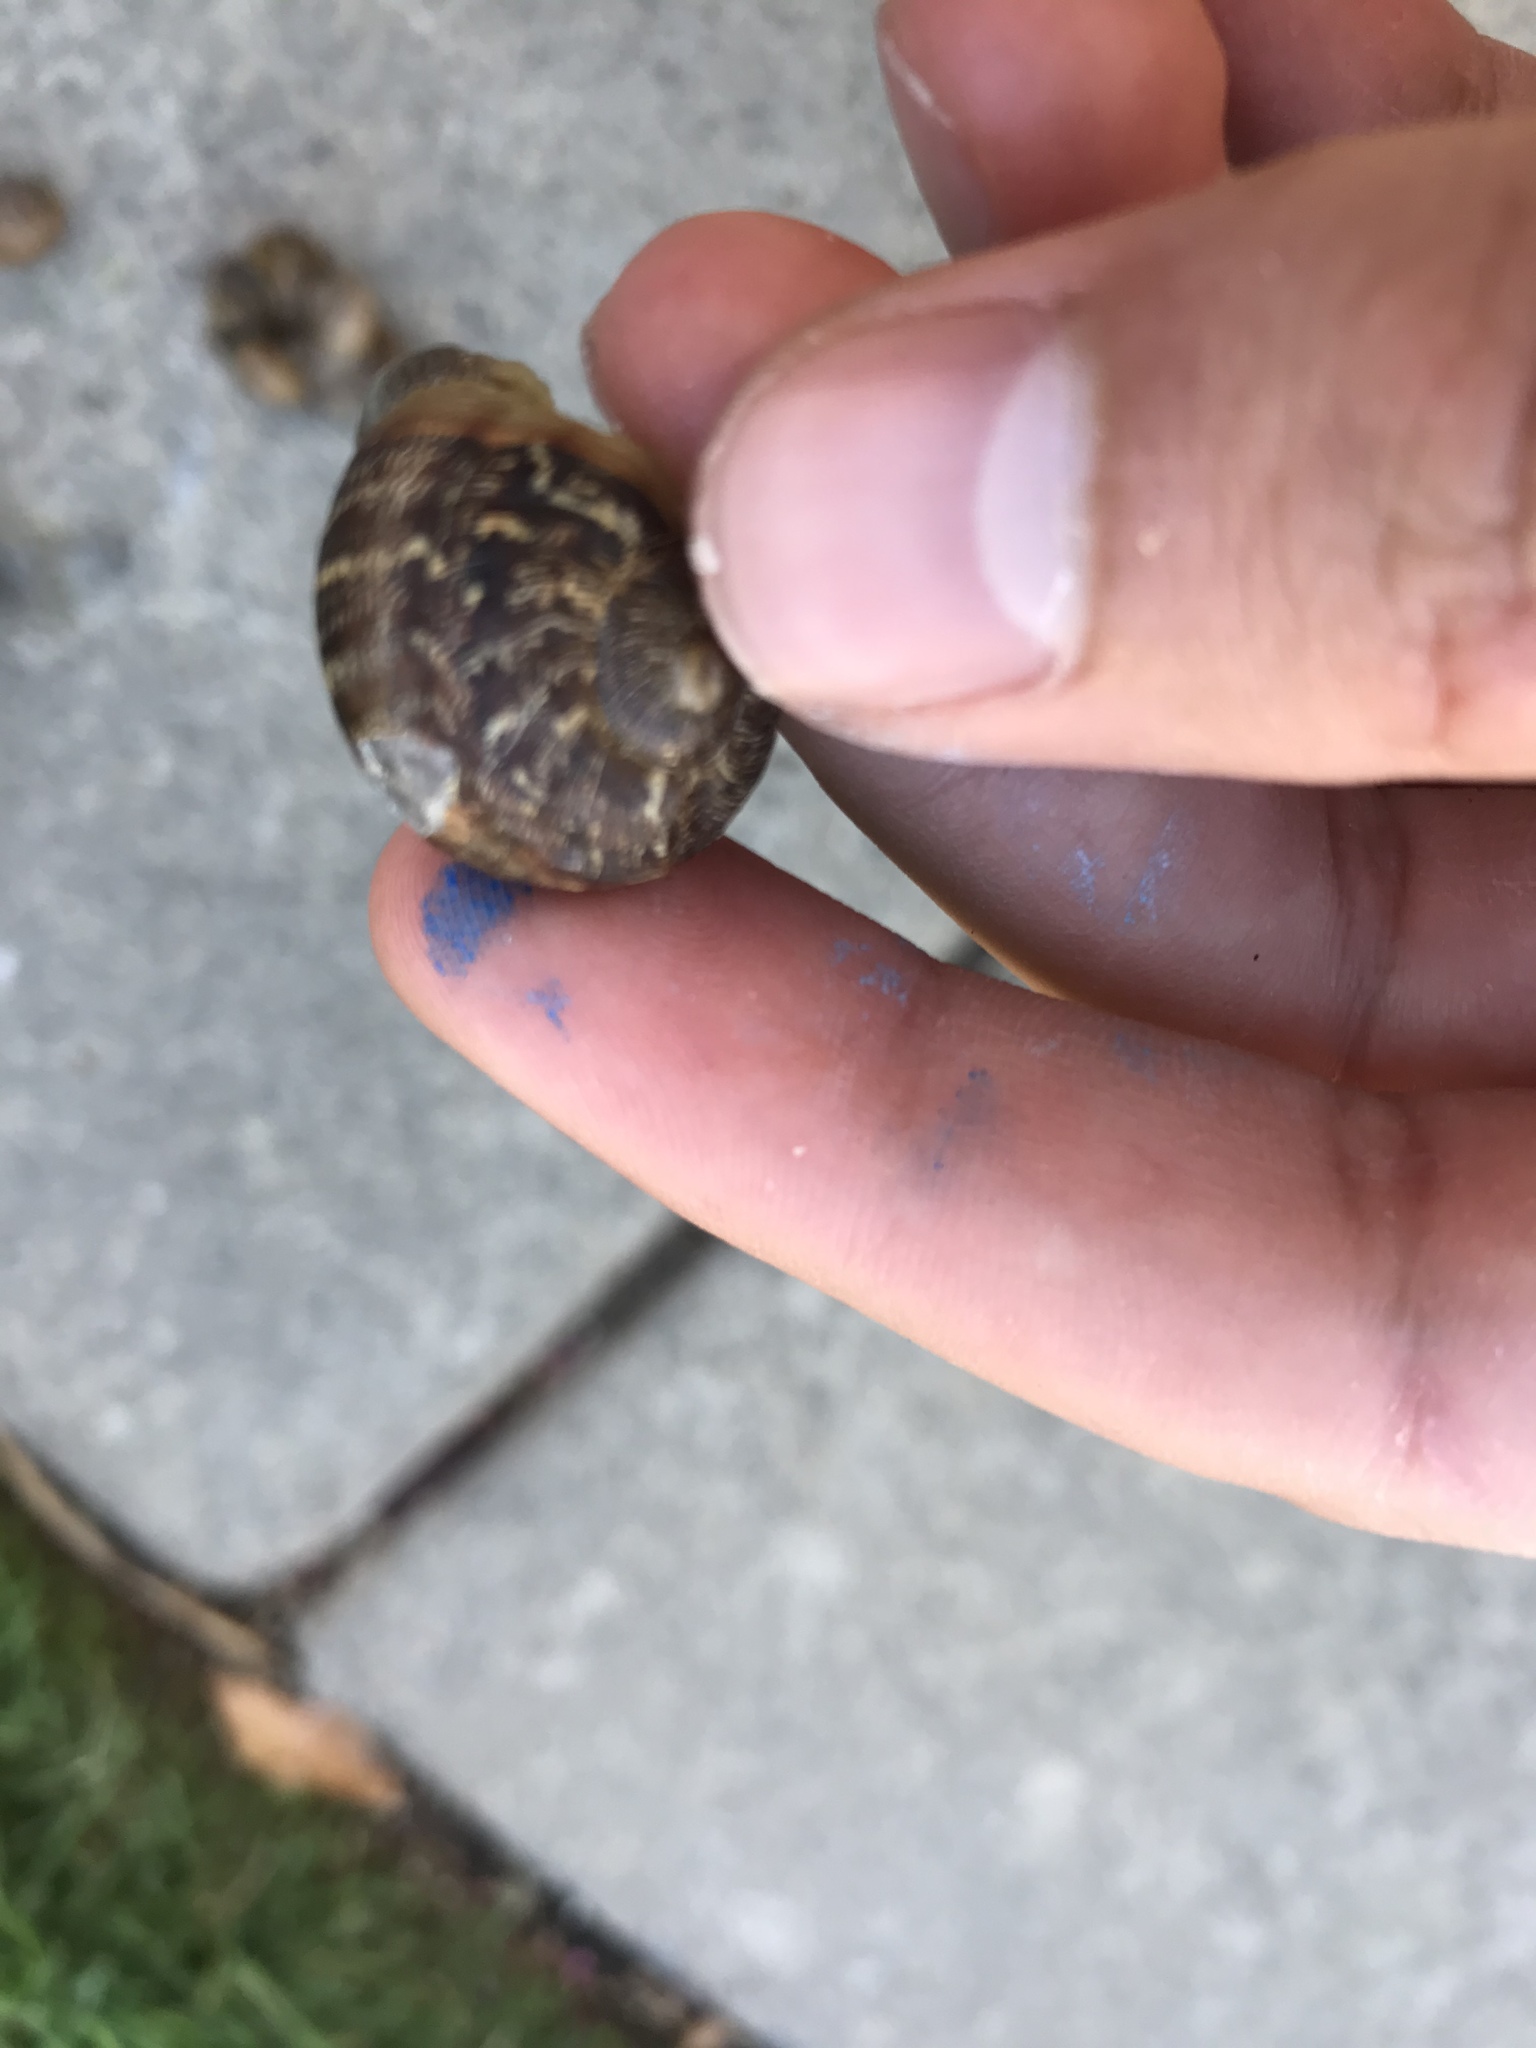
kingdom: Animalia
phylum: Mollusca
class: Gastropoda
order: Stylommatophora
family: Helicidae
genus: Cornu
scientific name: Cornu aspersum
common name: Brown garden snail
